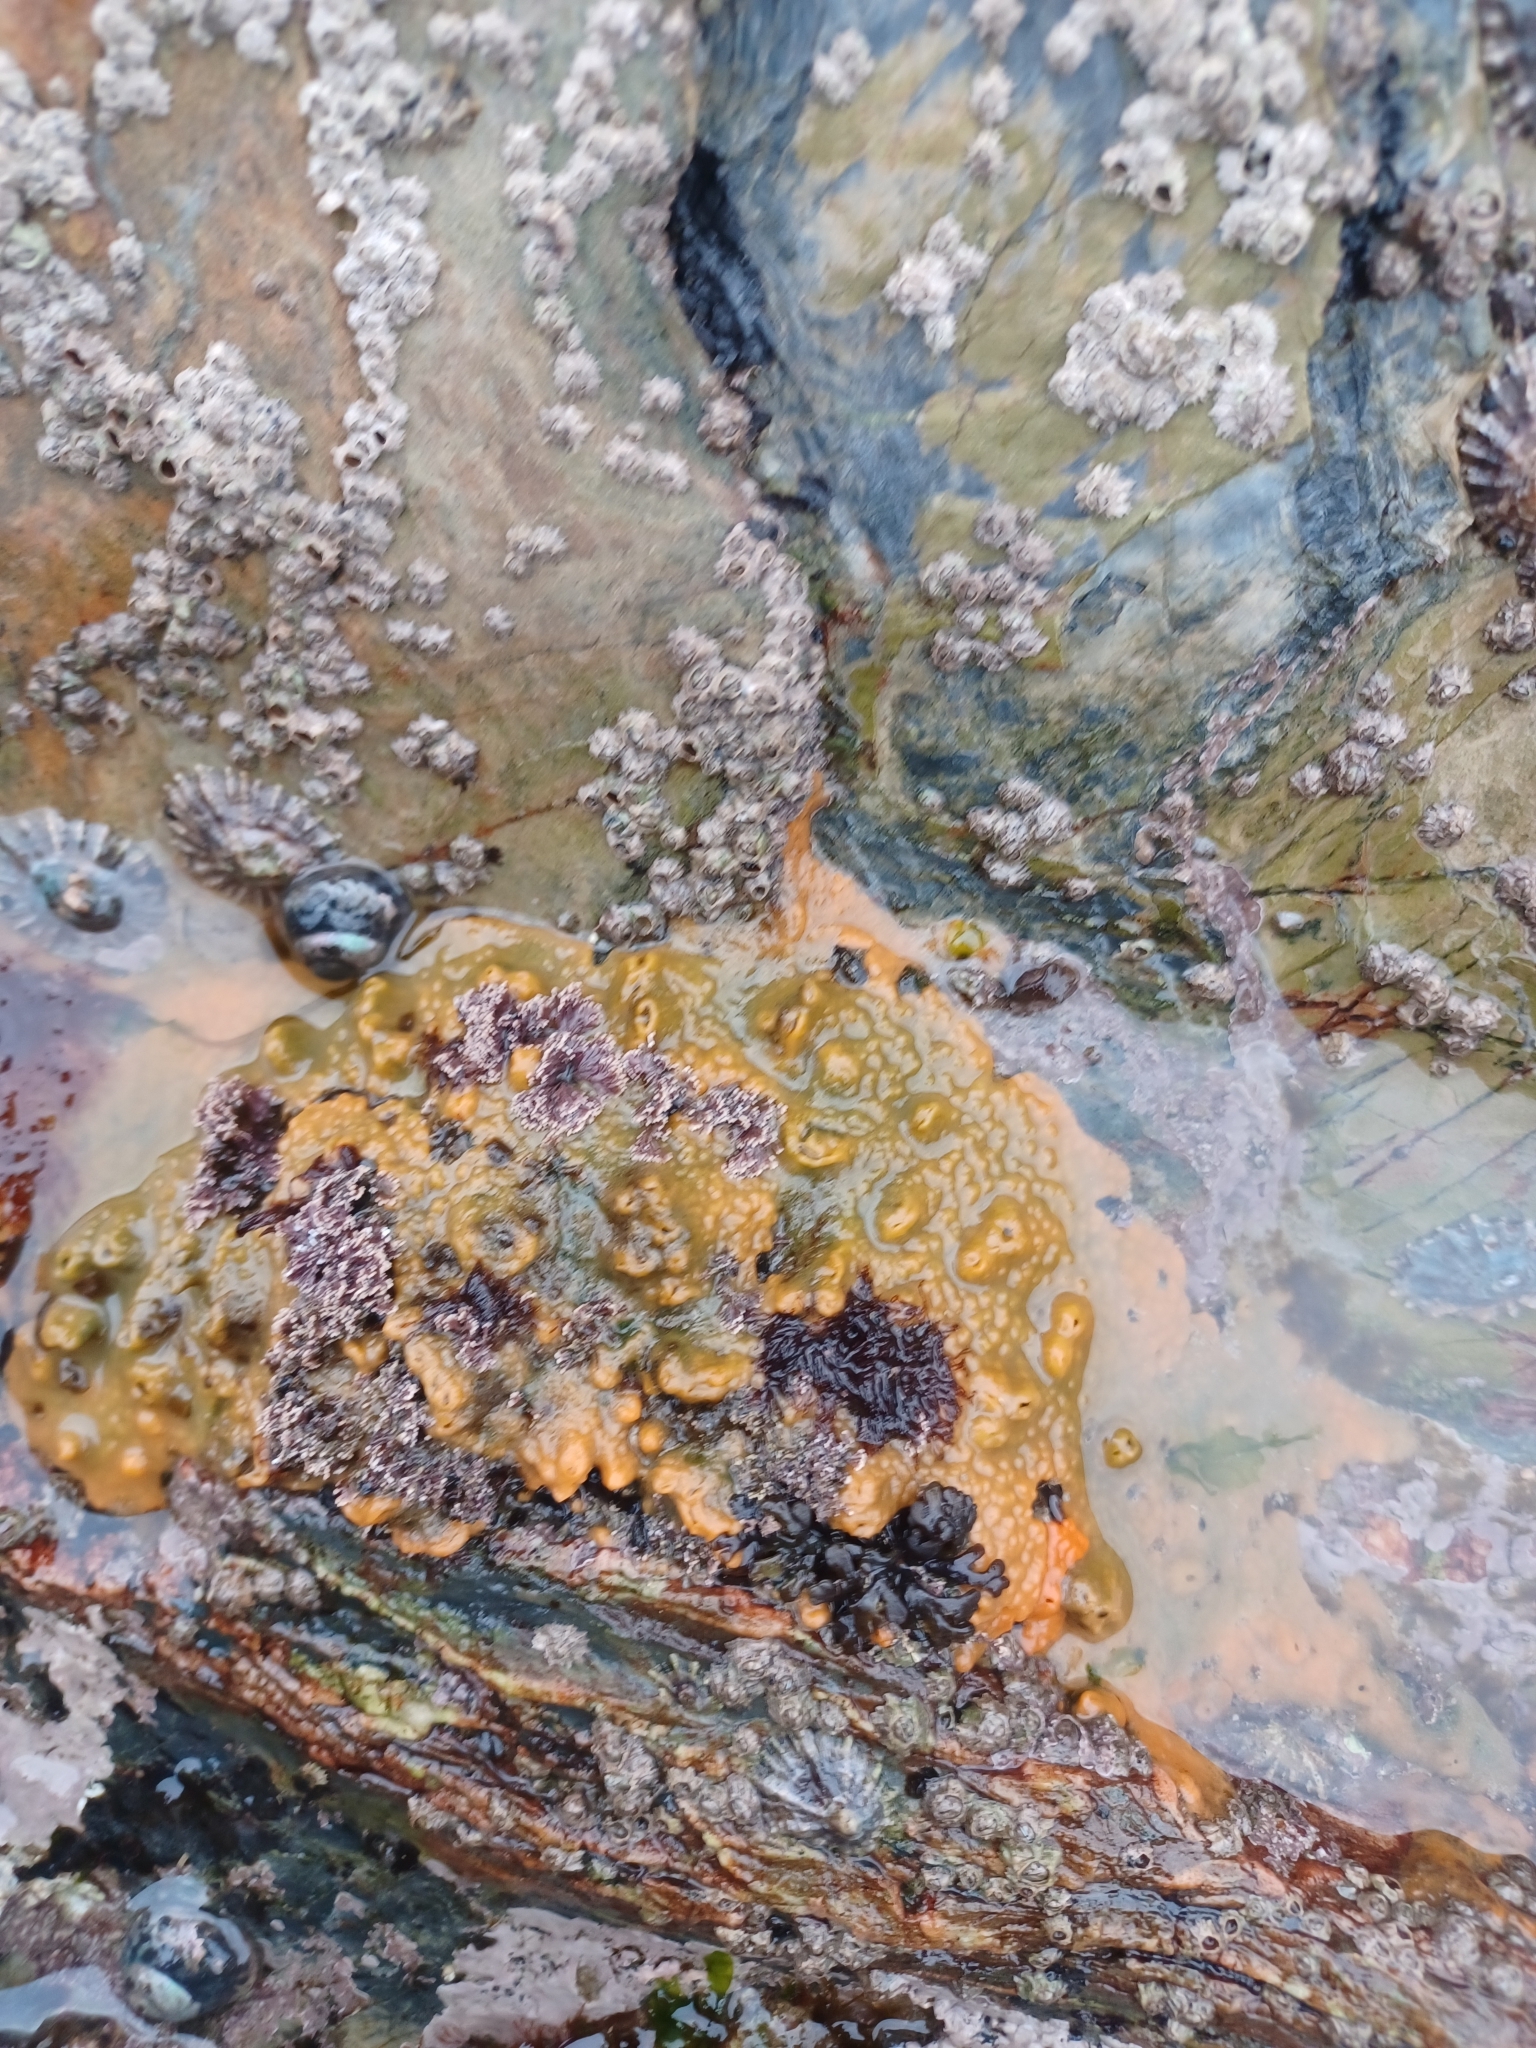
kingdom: Animalia
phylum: Porifera
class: Demospongiae
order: Suberitida
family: Halichondriidae
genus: Halichondria
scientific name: Halichondria panicea
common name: Breadcrumb sponge
